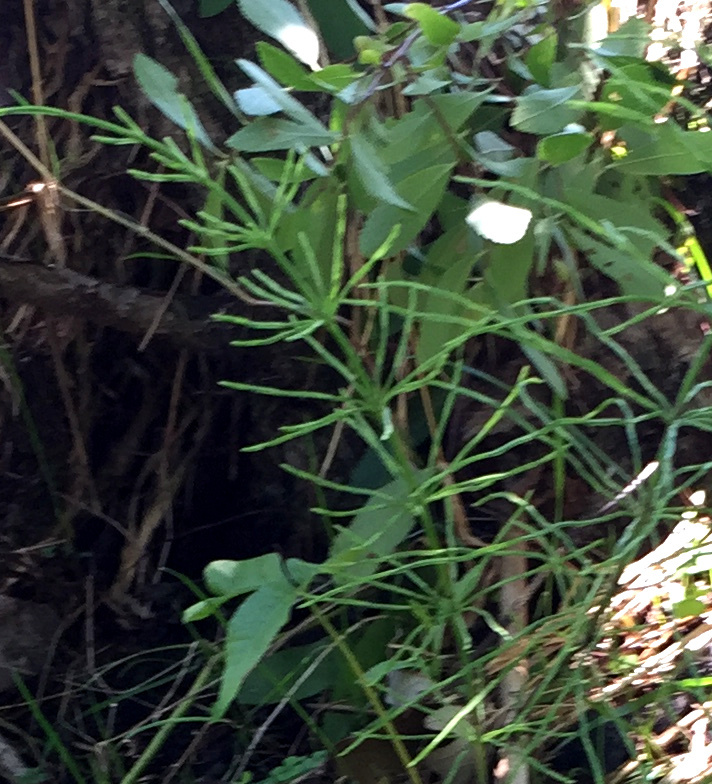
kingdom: Plantae
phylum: Tracheophyta
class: Polypodiopsida
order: Equisetales
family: Equisetaceae
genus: Equisetum
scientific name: Equisetum arvense
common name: Field horsetail
